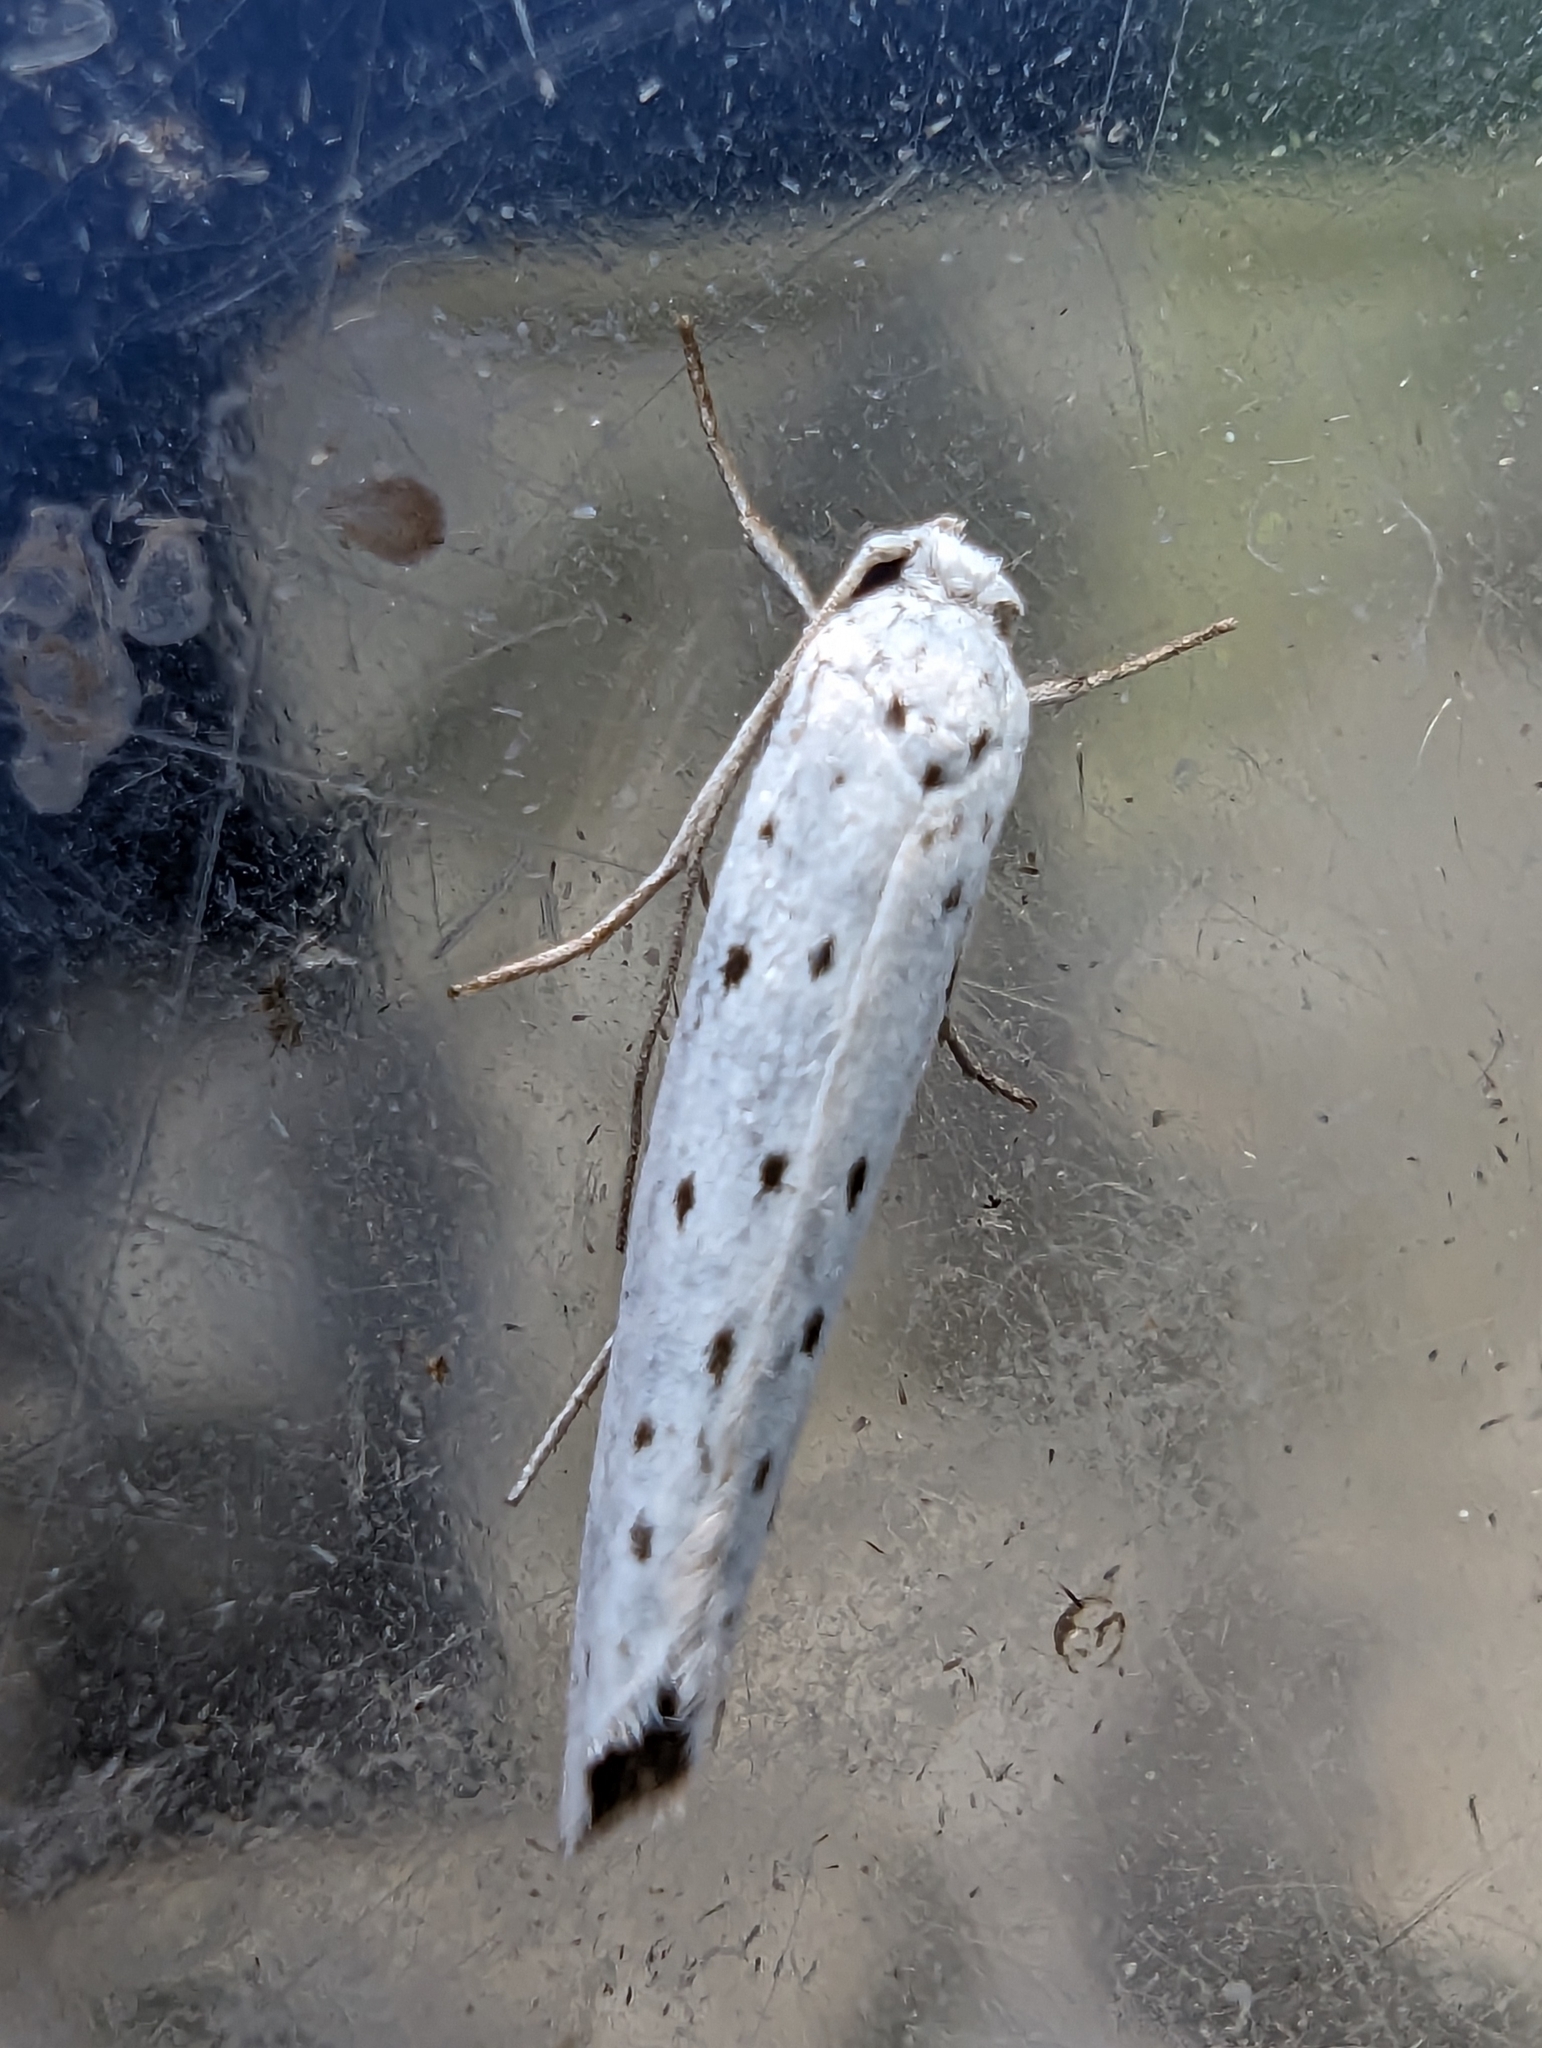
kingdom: Animalia
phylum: Arthropoda
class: Insecta
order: Lepidoptera
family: Yponomeutidae
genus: Yponomeuta
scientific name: Yponomeuta
